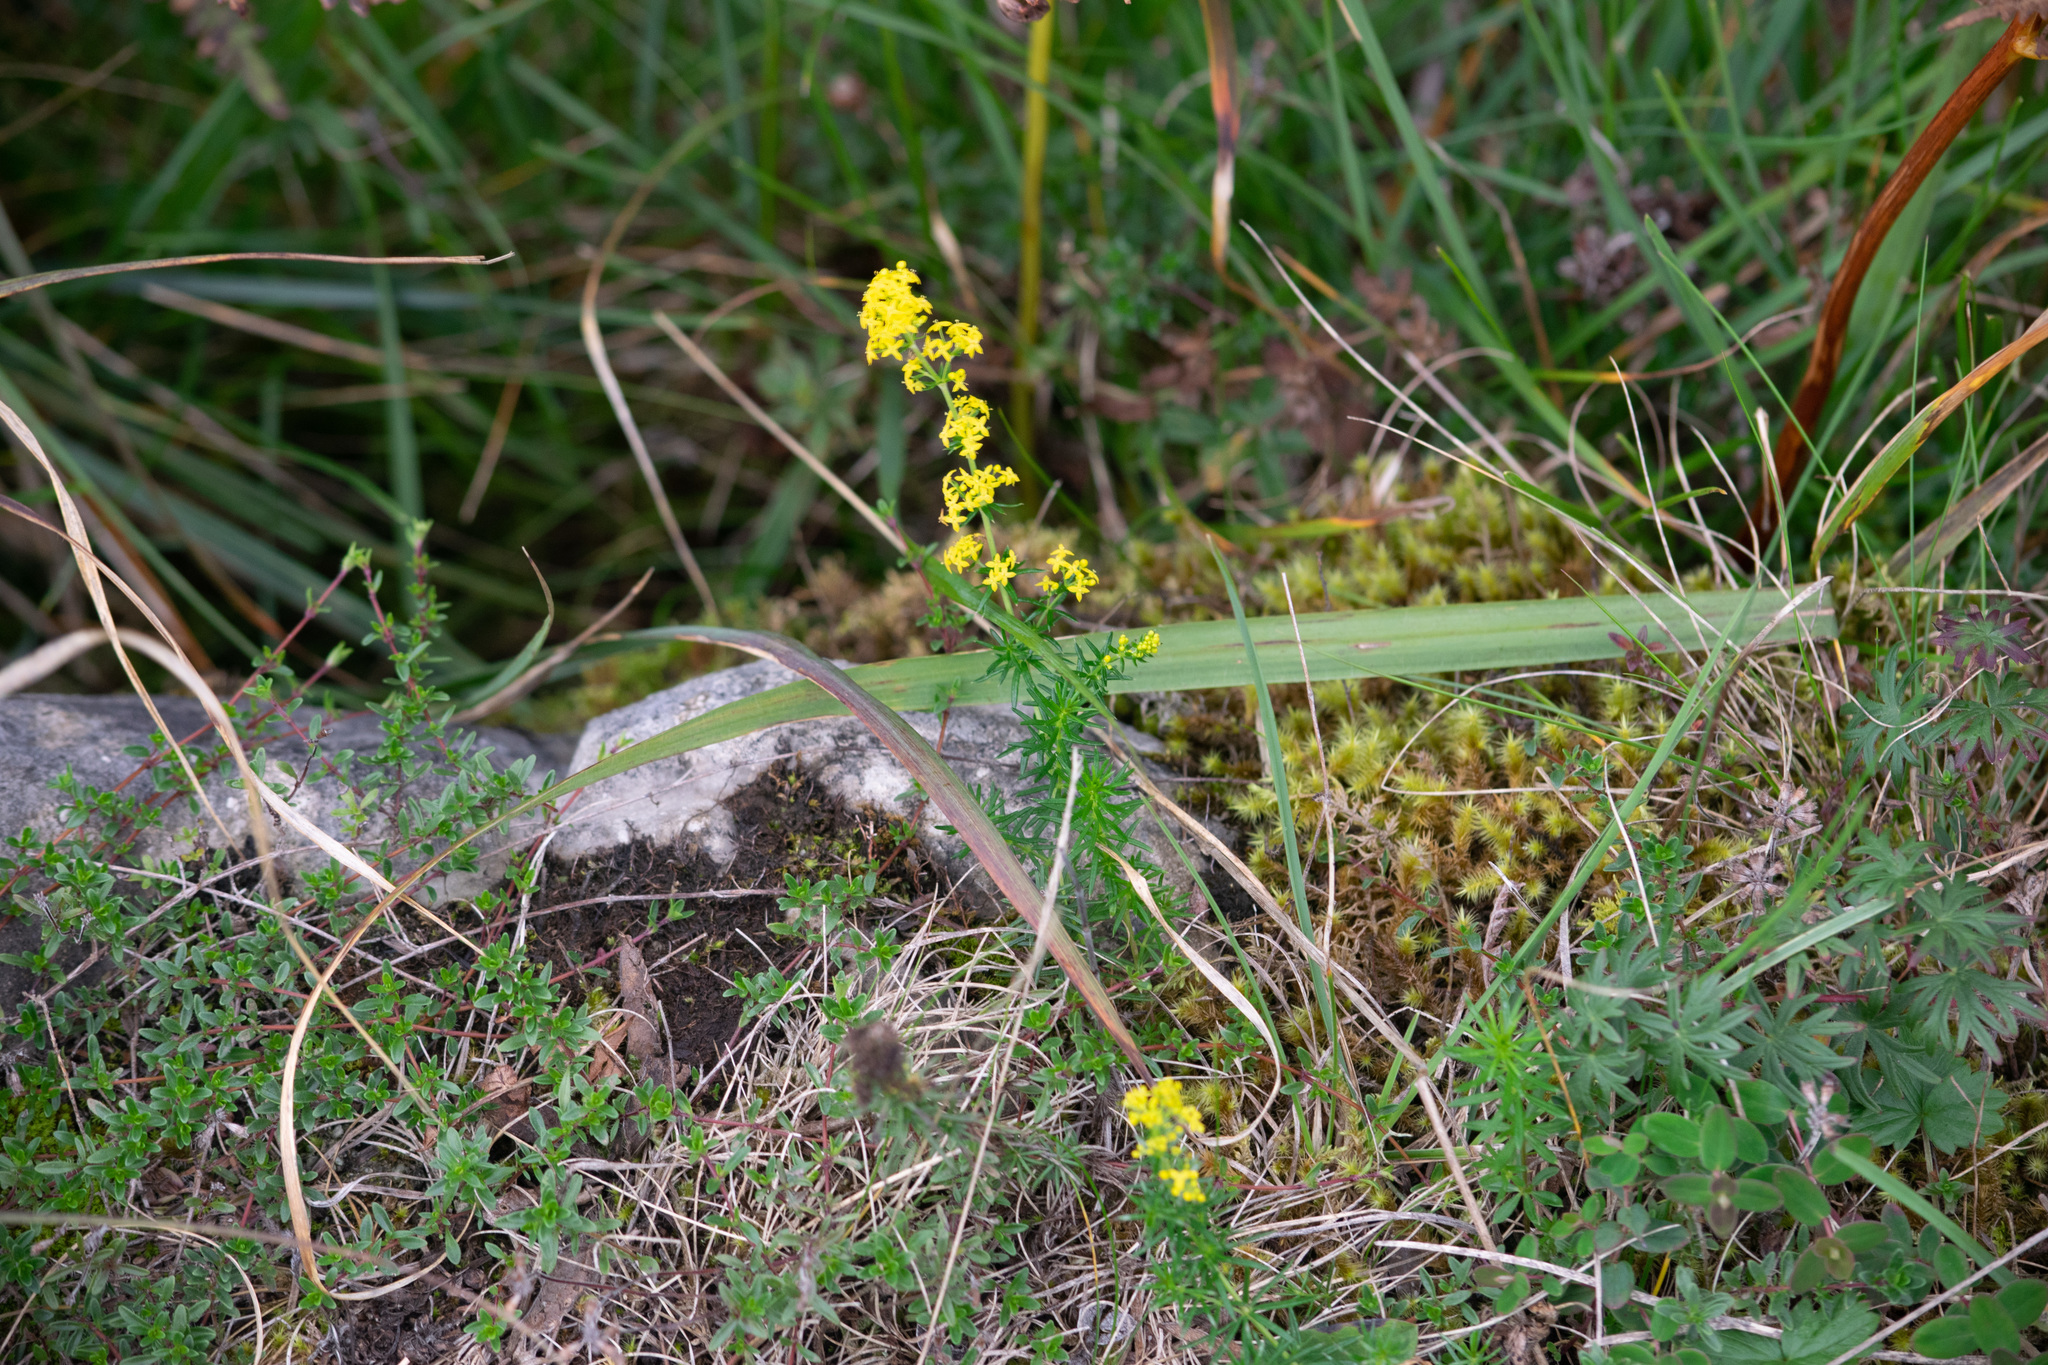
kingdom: Plantae
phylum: Tracheophyta
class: Magnoliopsida
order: Gentianales
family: Rubiaceae
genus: Galium
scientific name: Galium verum
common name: Lady's bedstraw
